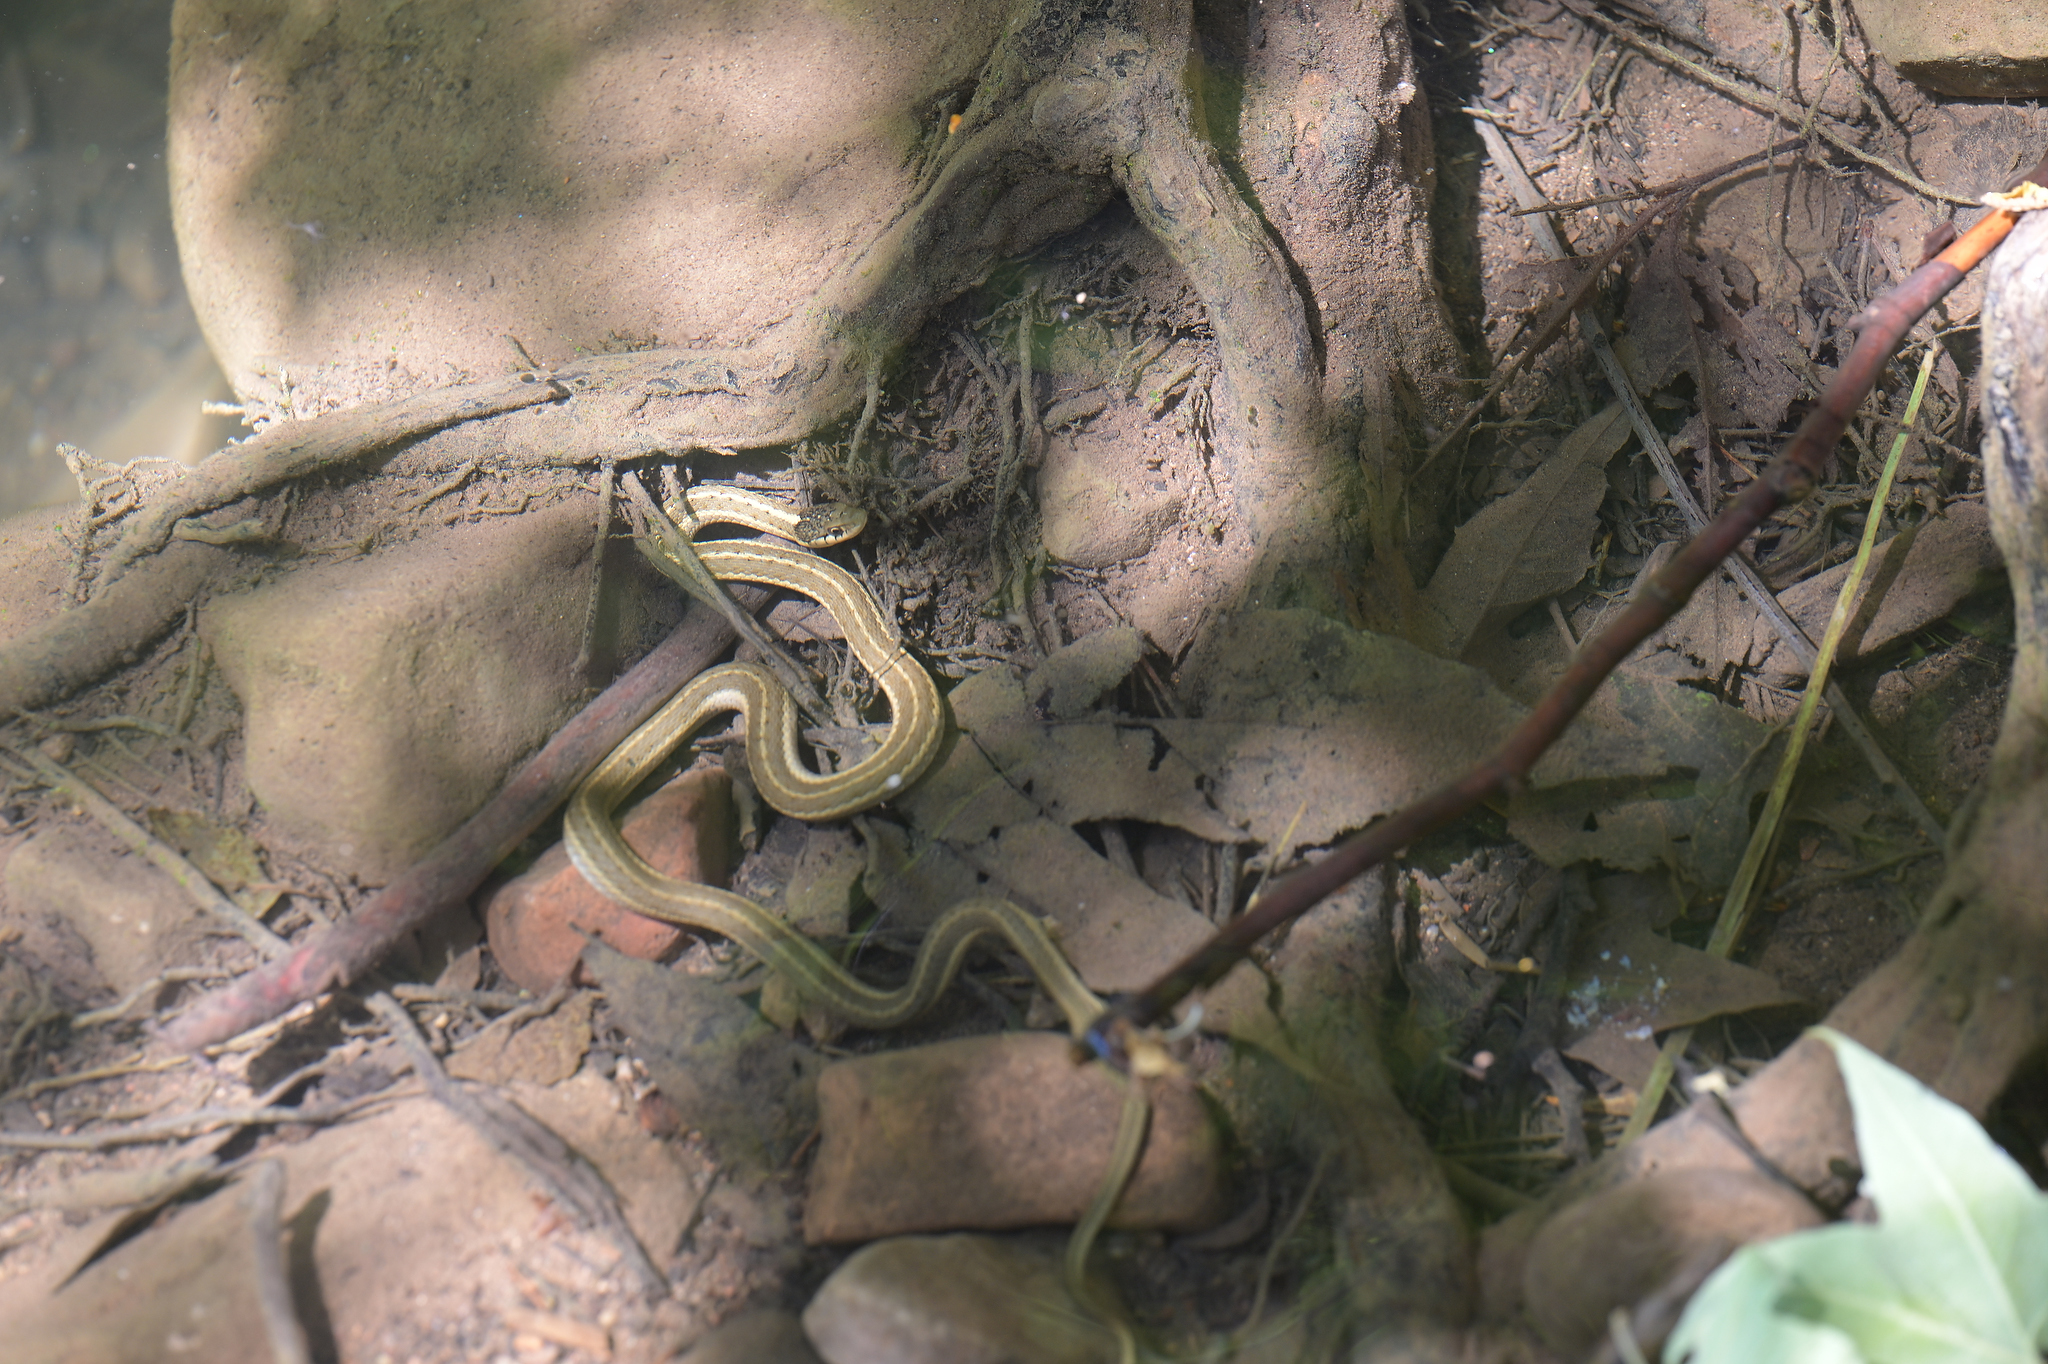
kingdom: Animalia
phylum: Chordata
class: Squamata
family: Colubridae
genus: Thamnophis
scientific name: Thamnophis elegans
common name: Western terrestrial garter snake
